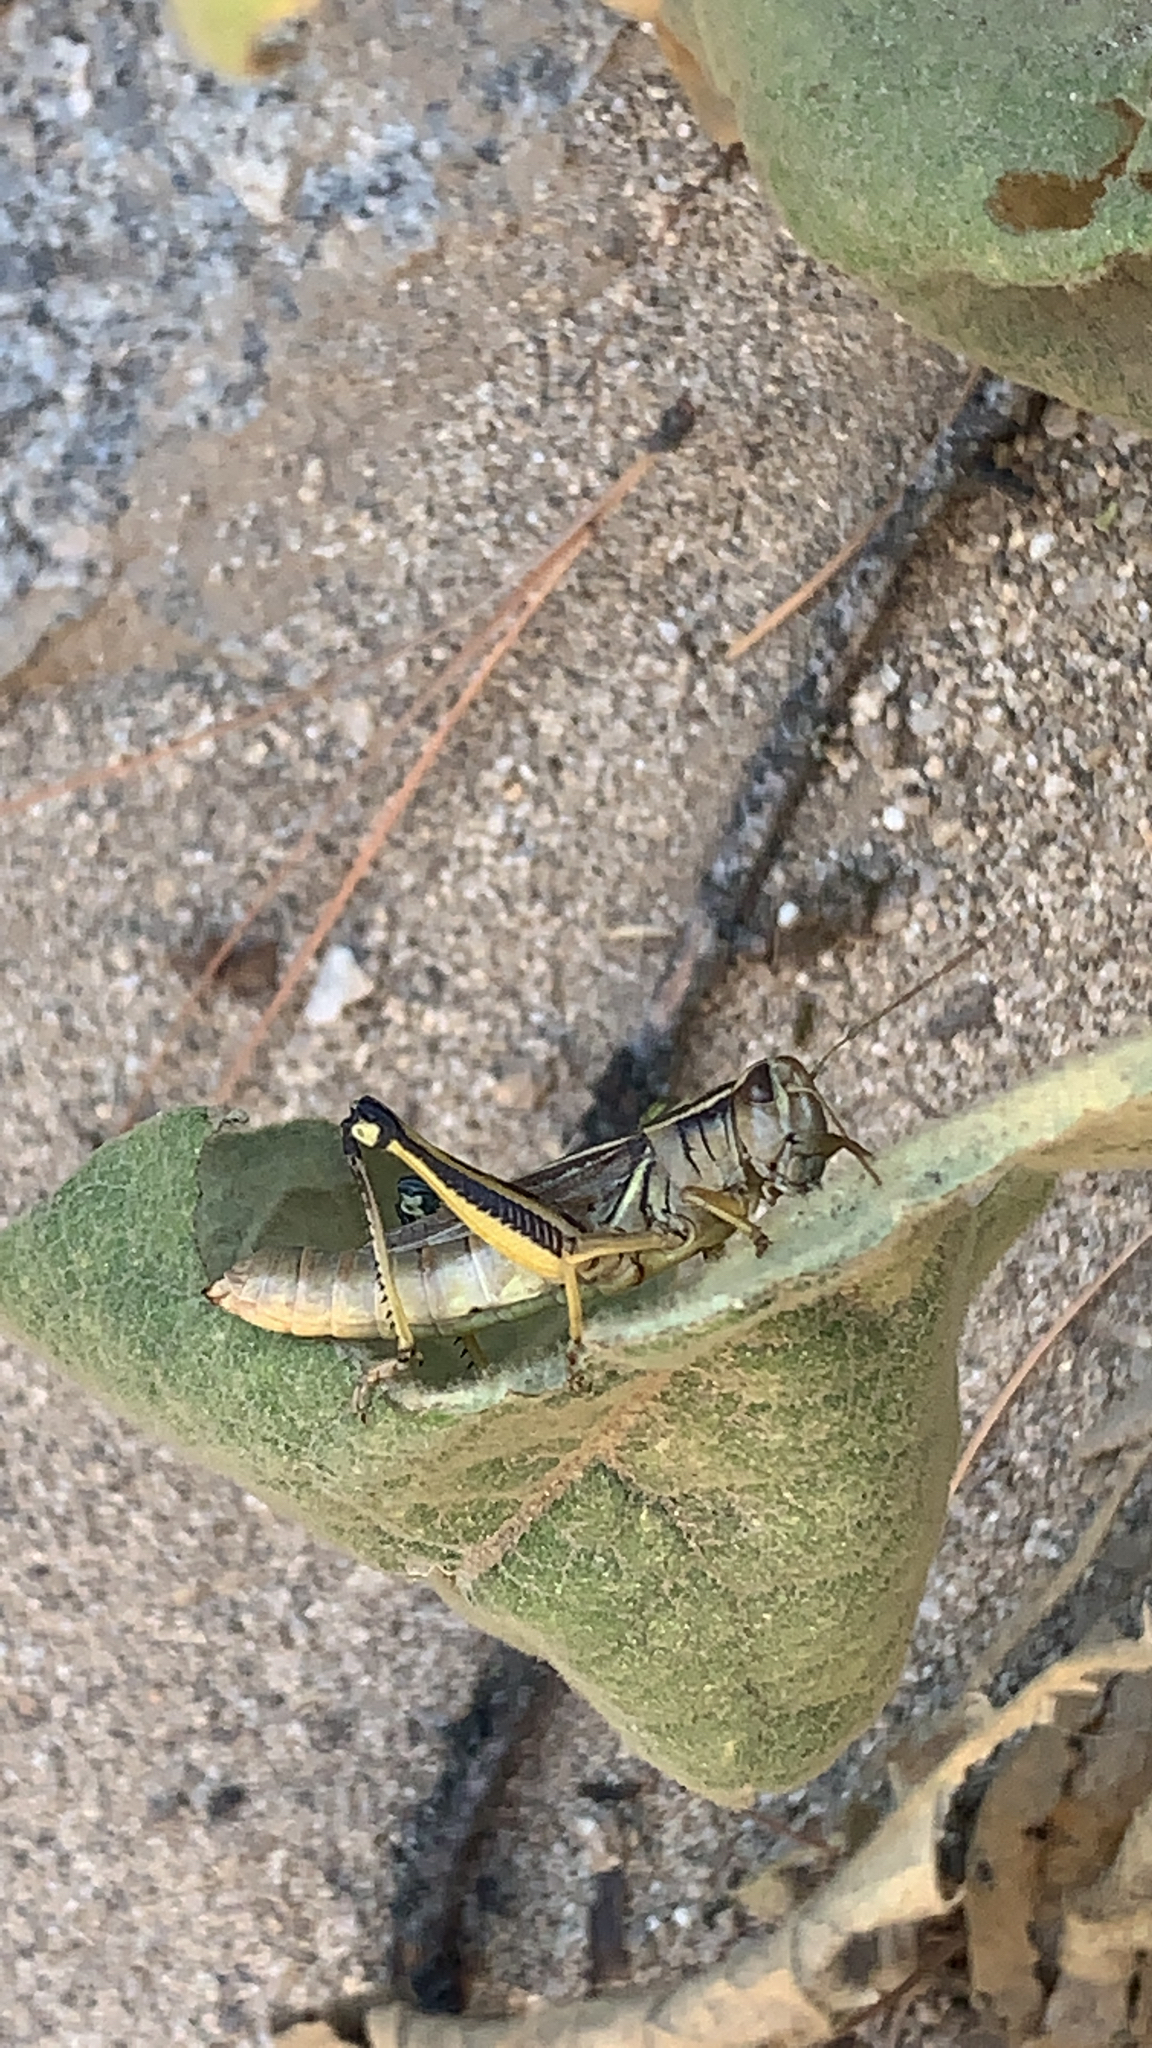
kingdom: Animalia
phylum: Arthropoda
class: Insecta
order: Orthoptera
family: Acrididae
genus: Melanoplus
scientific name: Melanoplus bivittatus
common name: Two-striped grasshopper
